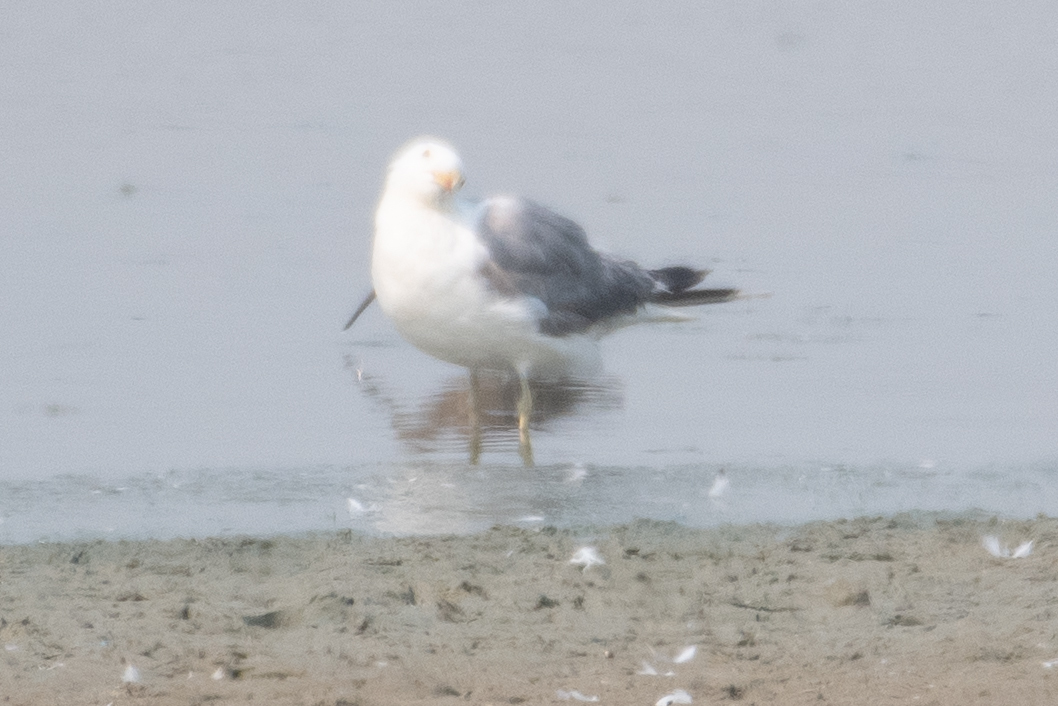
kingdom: Animalia
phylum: Chordata
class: Aves
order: Charadriiformes
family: Laridae
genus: Larus
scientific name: Larus californicus
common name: California gull
